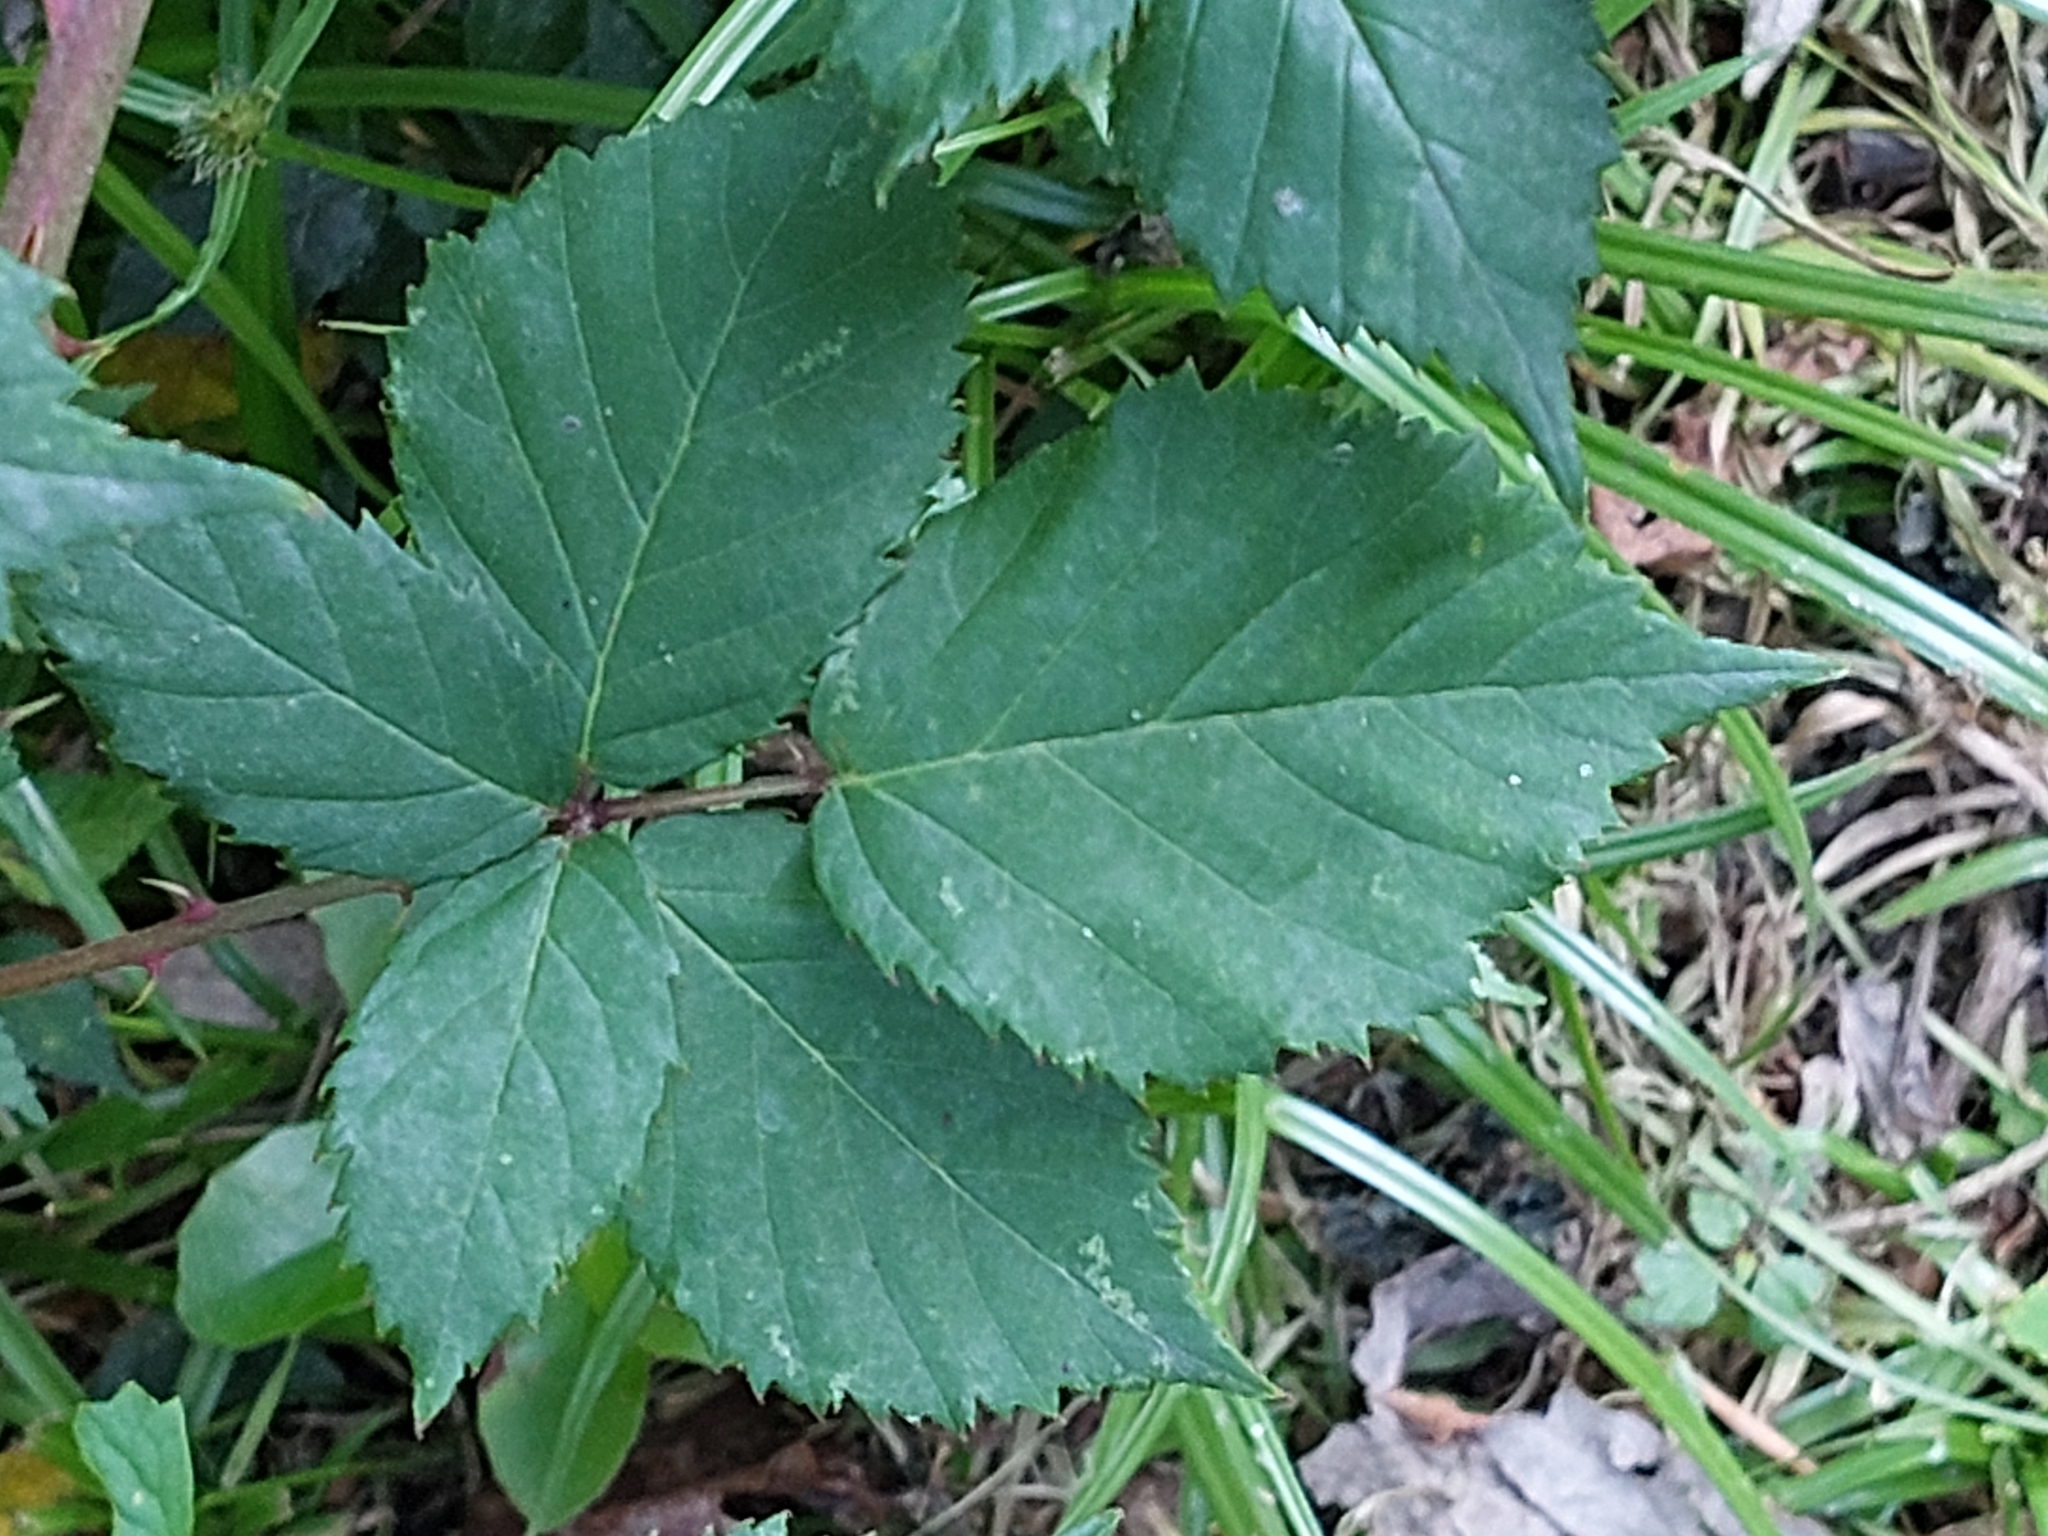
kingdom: Plantae
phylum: Tracheophyta
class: Magnoliopsida
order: Rosales
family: Rosaceae
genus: Rubus
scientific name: Rubus affinis
